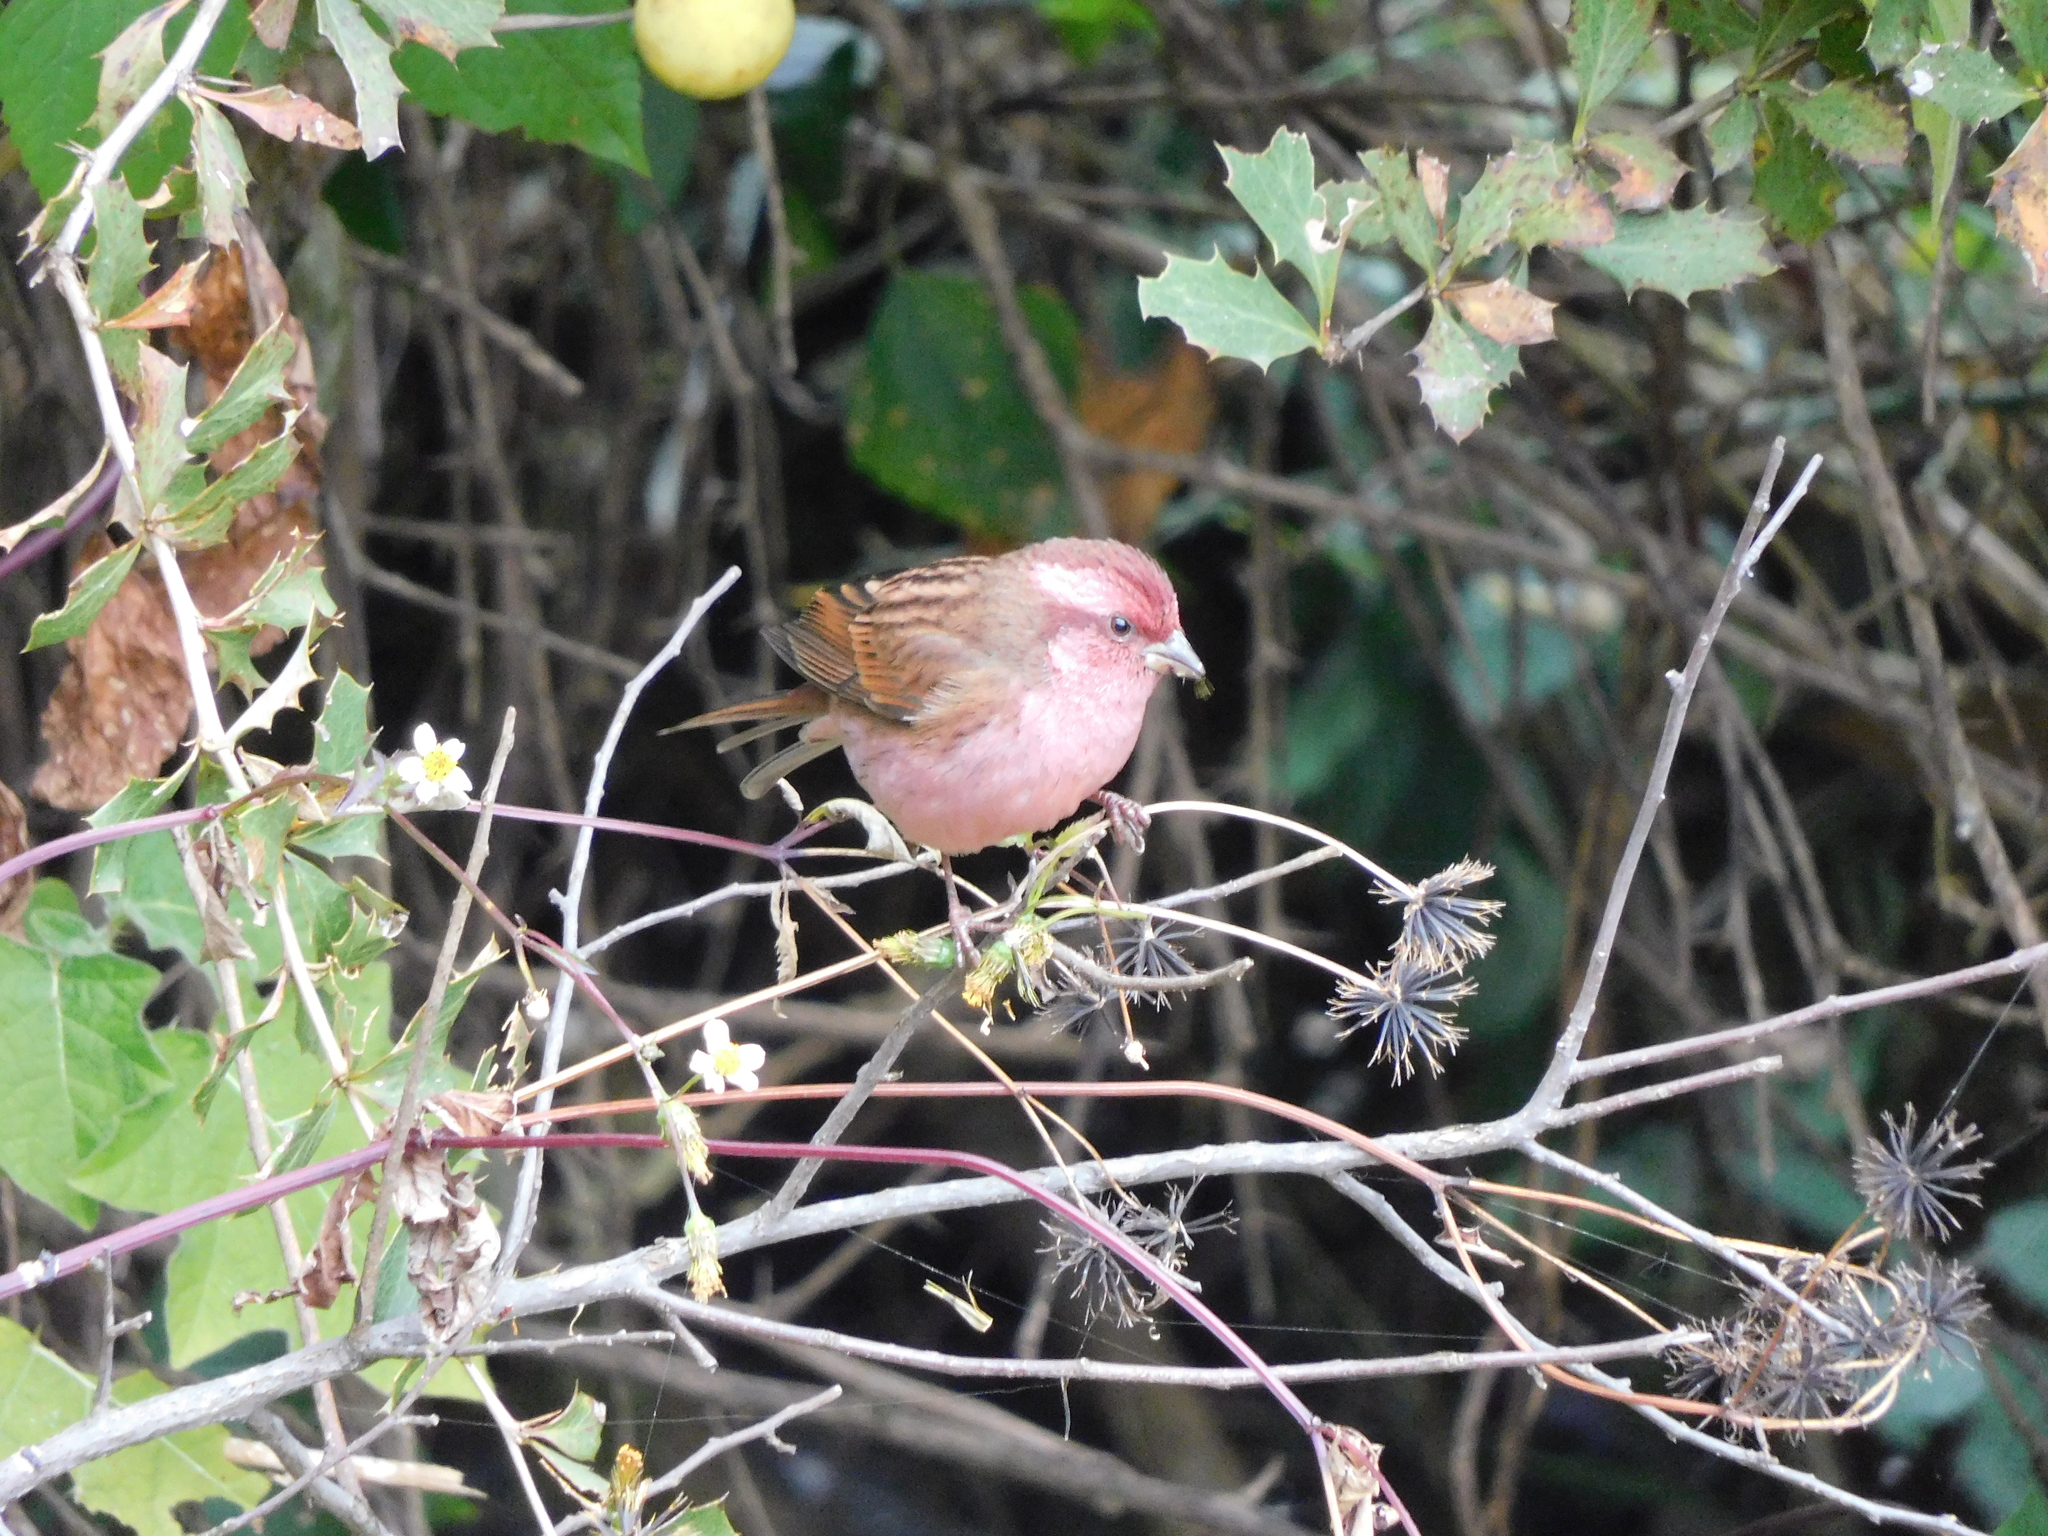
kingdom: Animalia
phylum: Chordata
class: Aves
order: Passeriformes
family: Fringillidae
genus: Carpodacus
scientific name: Carpodacus rodochroa
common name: Pink-browed rosefinch
